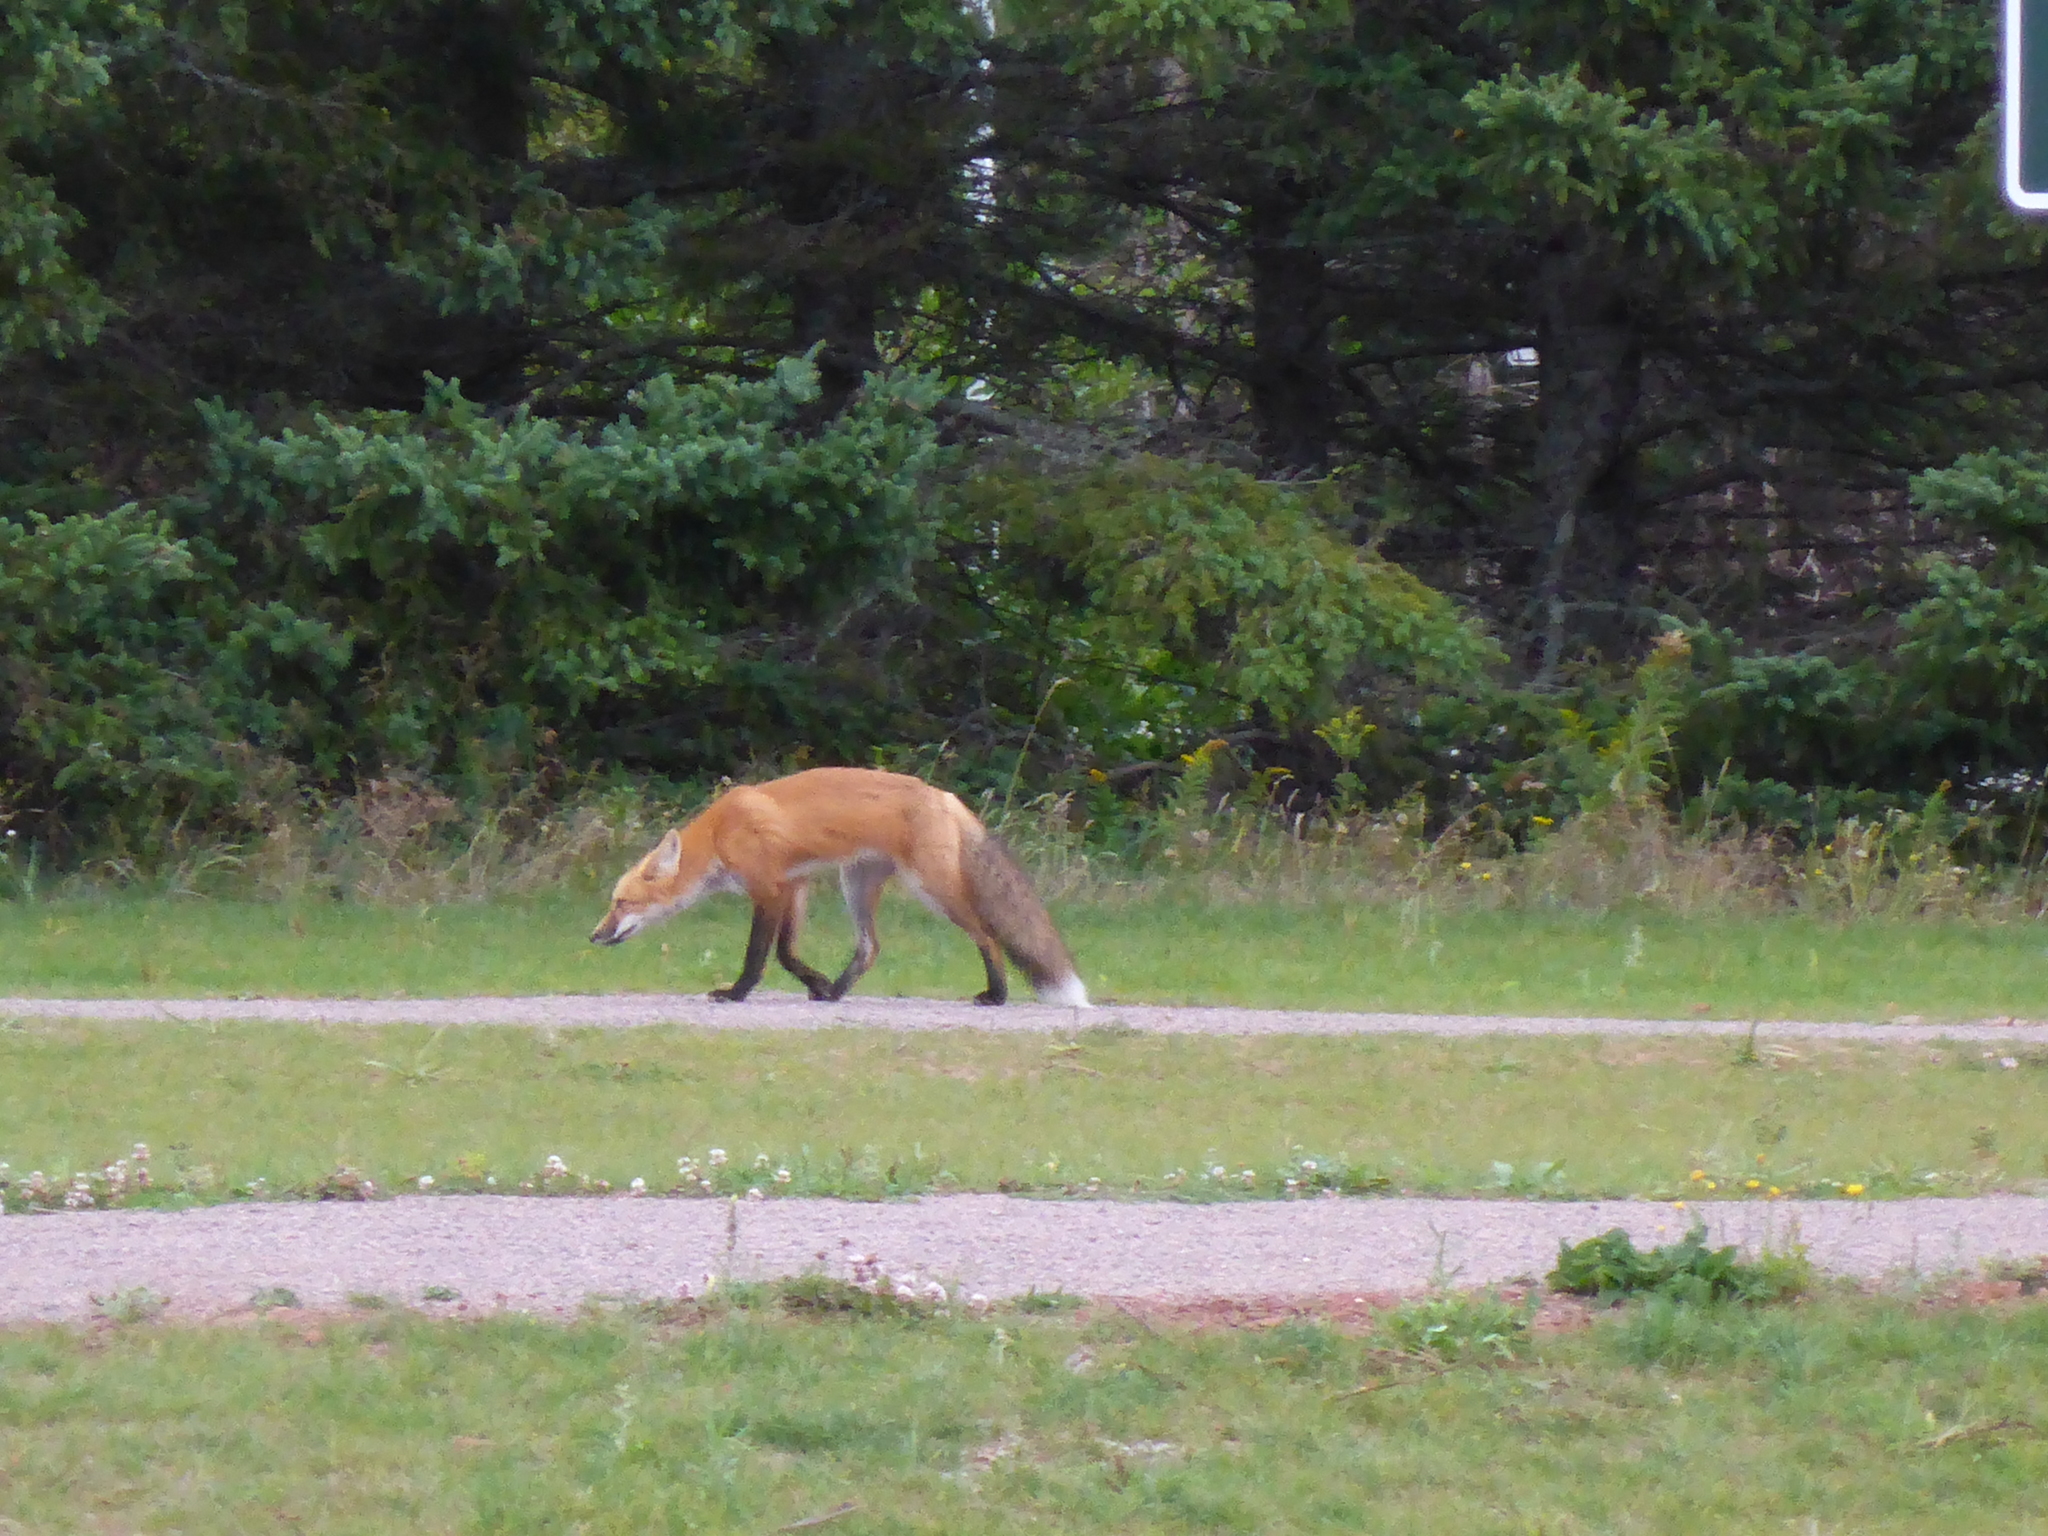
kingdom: Animalia
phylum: Chordata
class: Mammalia
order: Carnivora
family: Canidae
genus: Vulpes
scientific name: Vulpes vulpes
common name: Red fox
